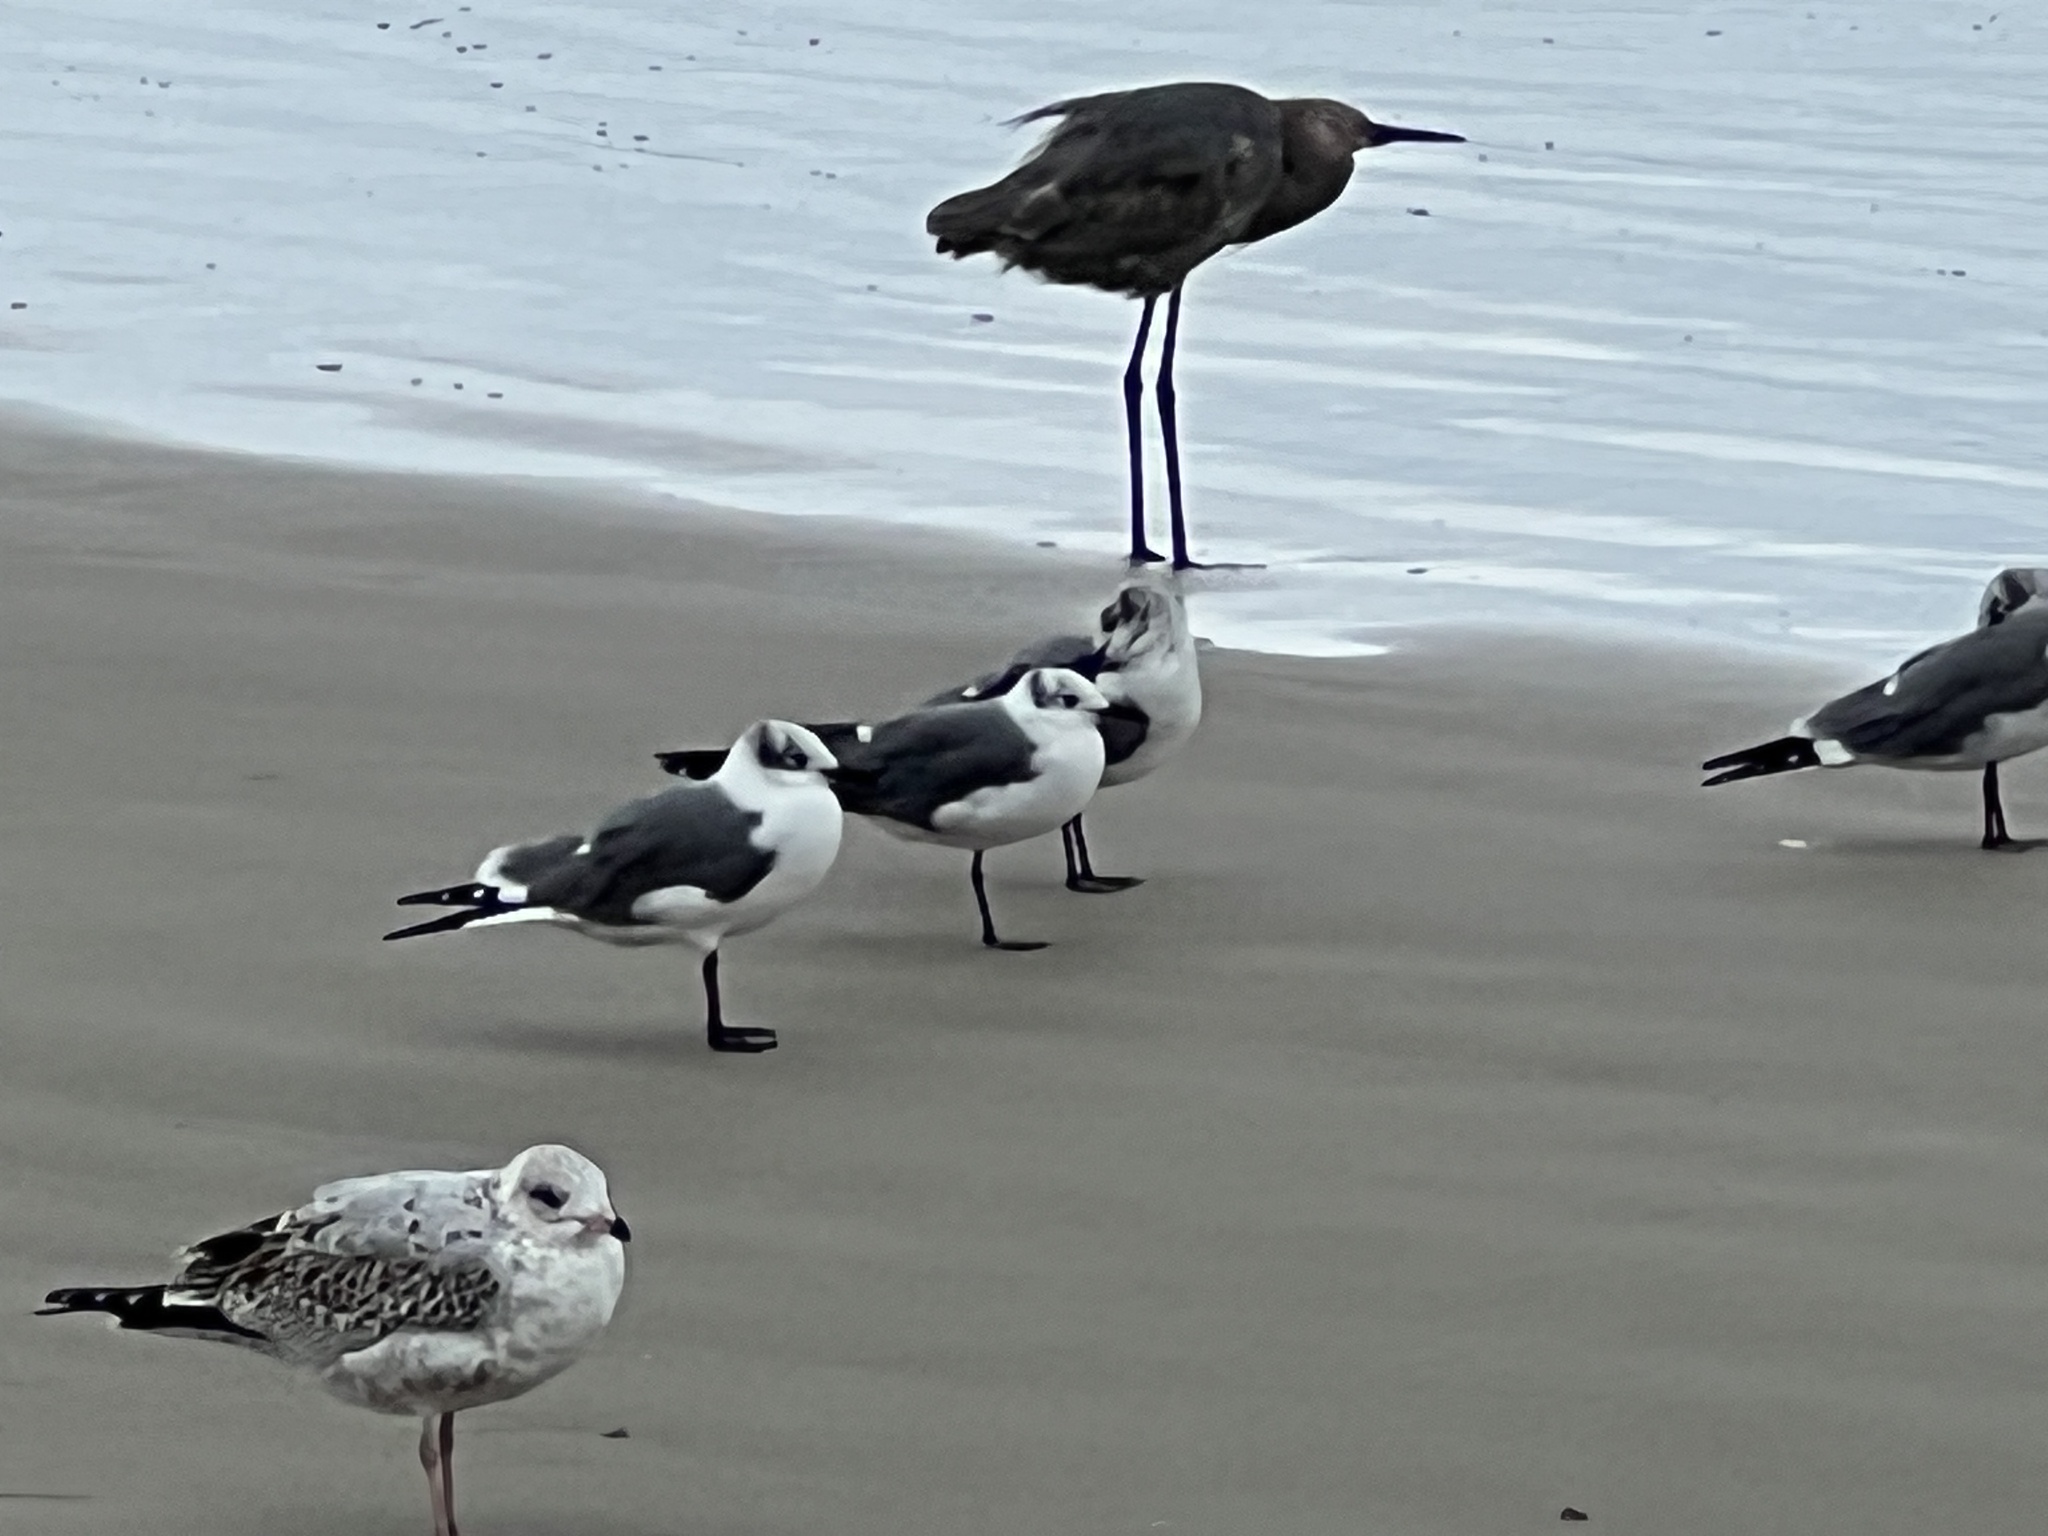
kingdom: Animalia
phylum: Chordata
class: Aves
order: Charadriiformes
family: Laridae
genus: Leucophaeus
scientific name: Leucophaeus atricilla
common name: Laughing gull
